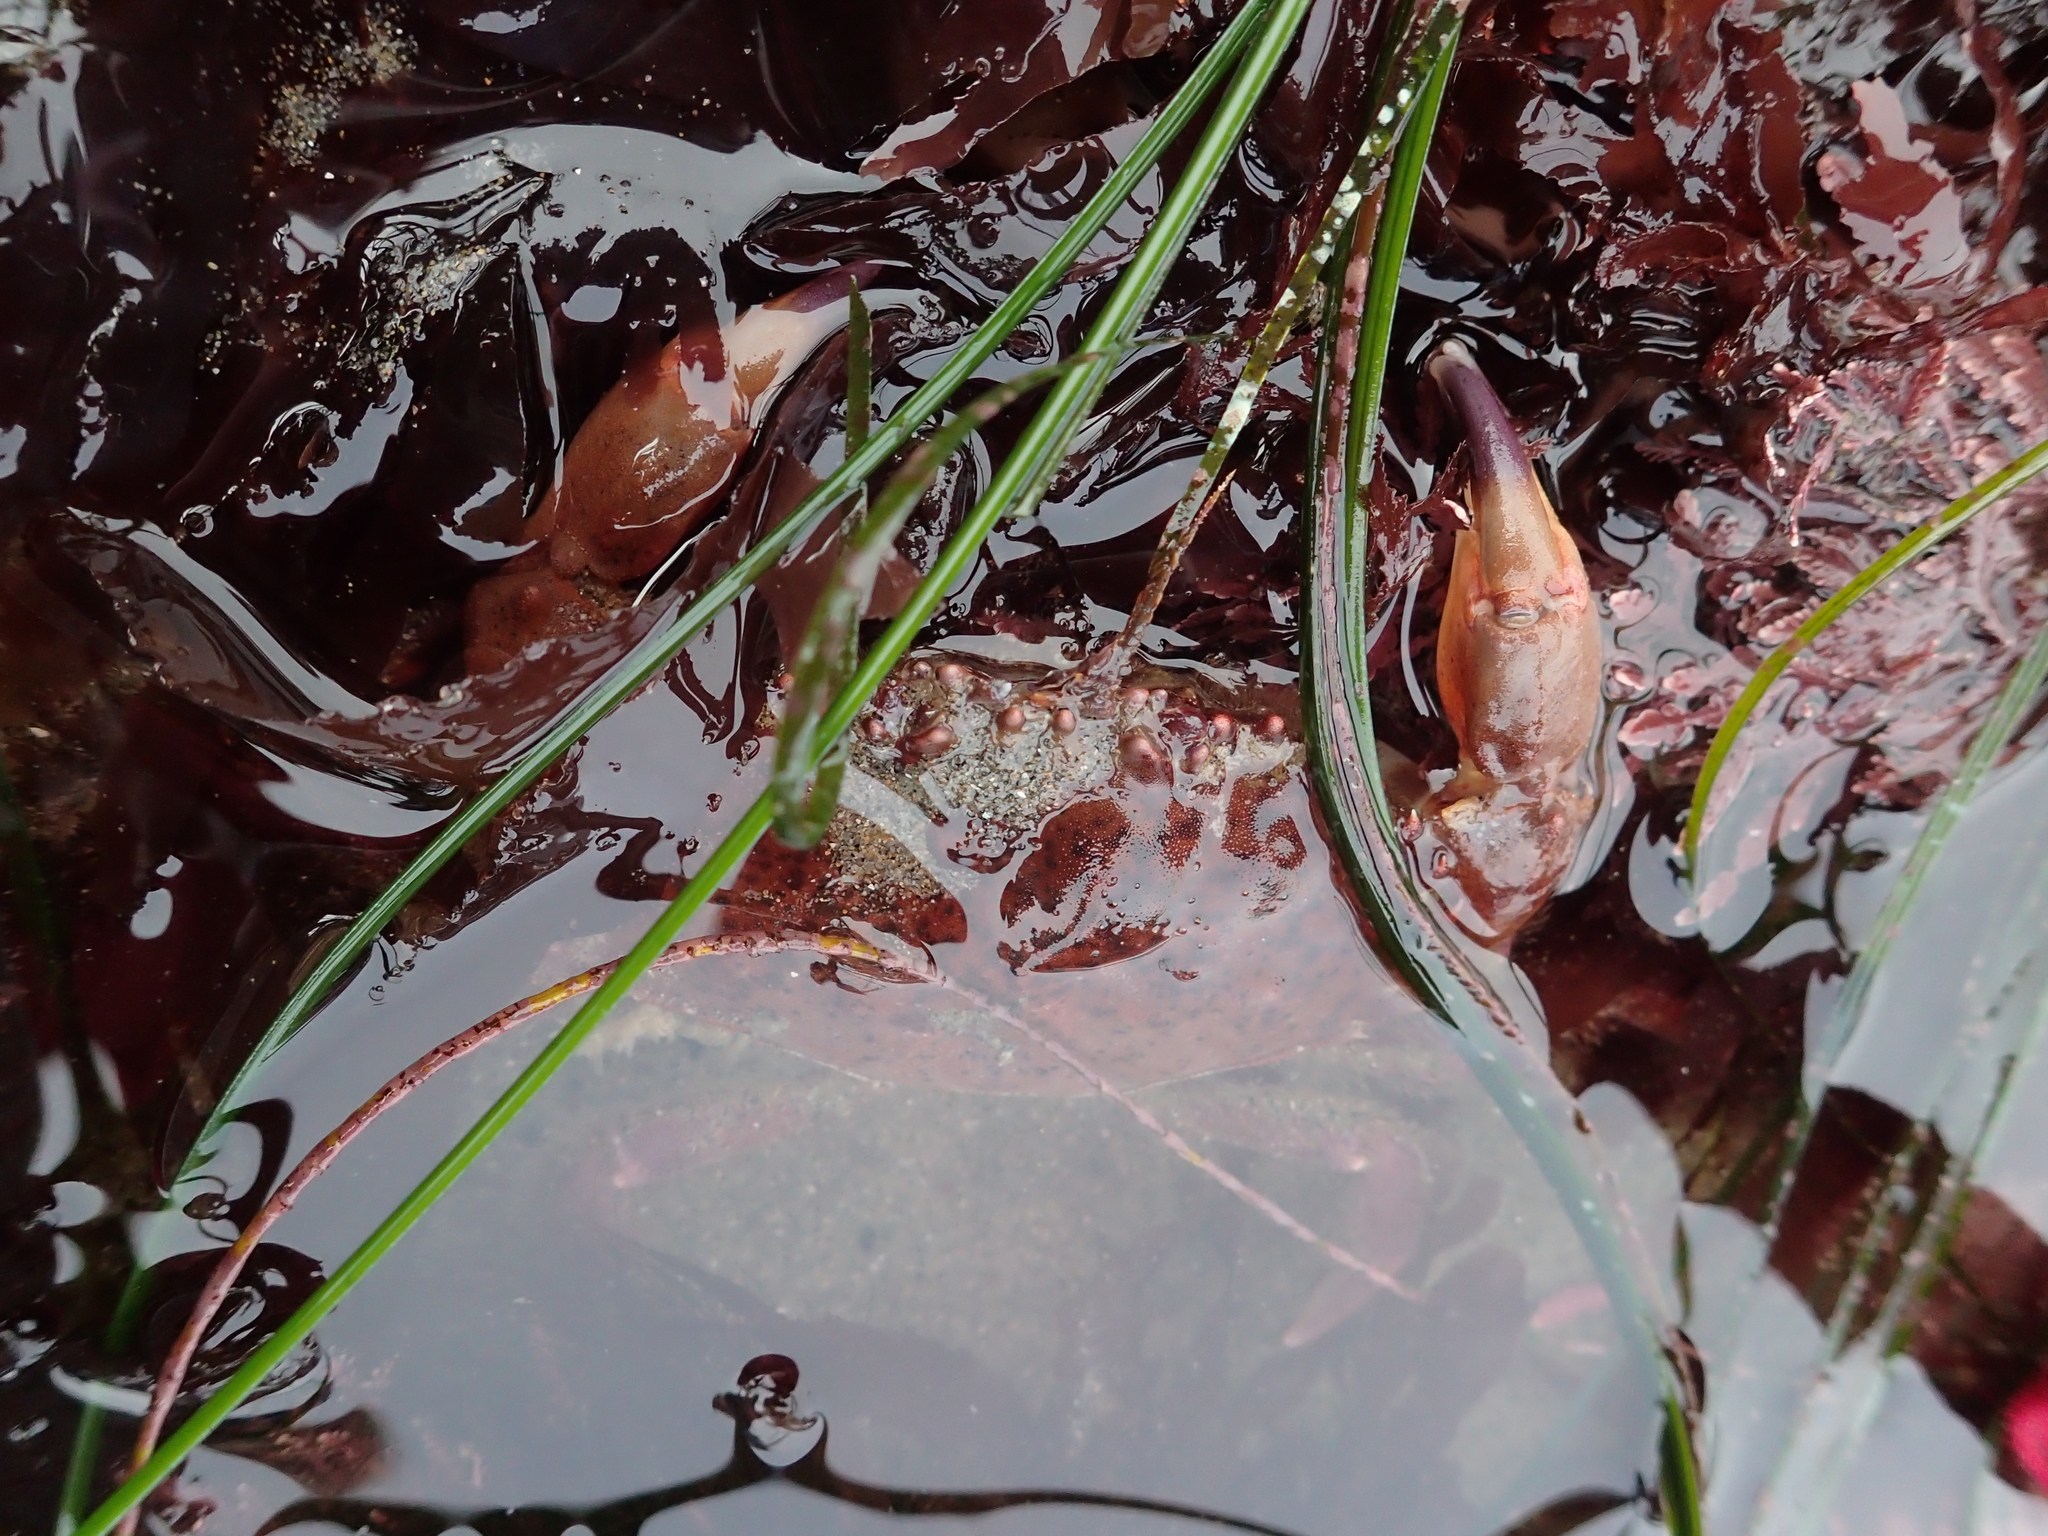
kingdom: Animalia
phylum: Arthropoda
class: Malacostraca
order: Decapoda
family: Cancridae
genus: Romaleon
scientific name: Romaleon antennarium
